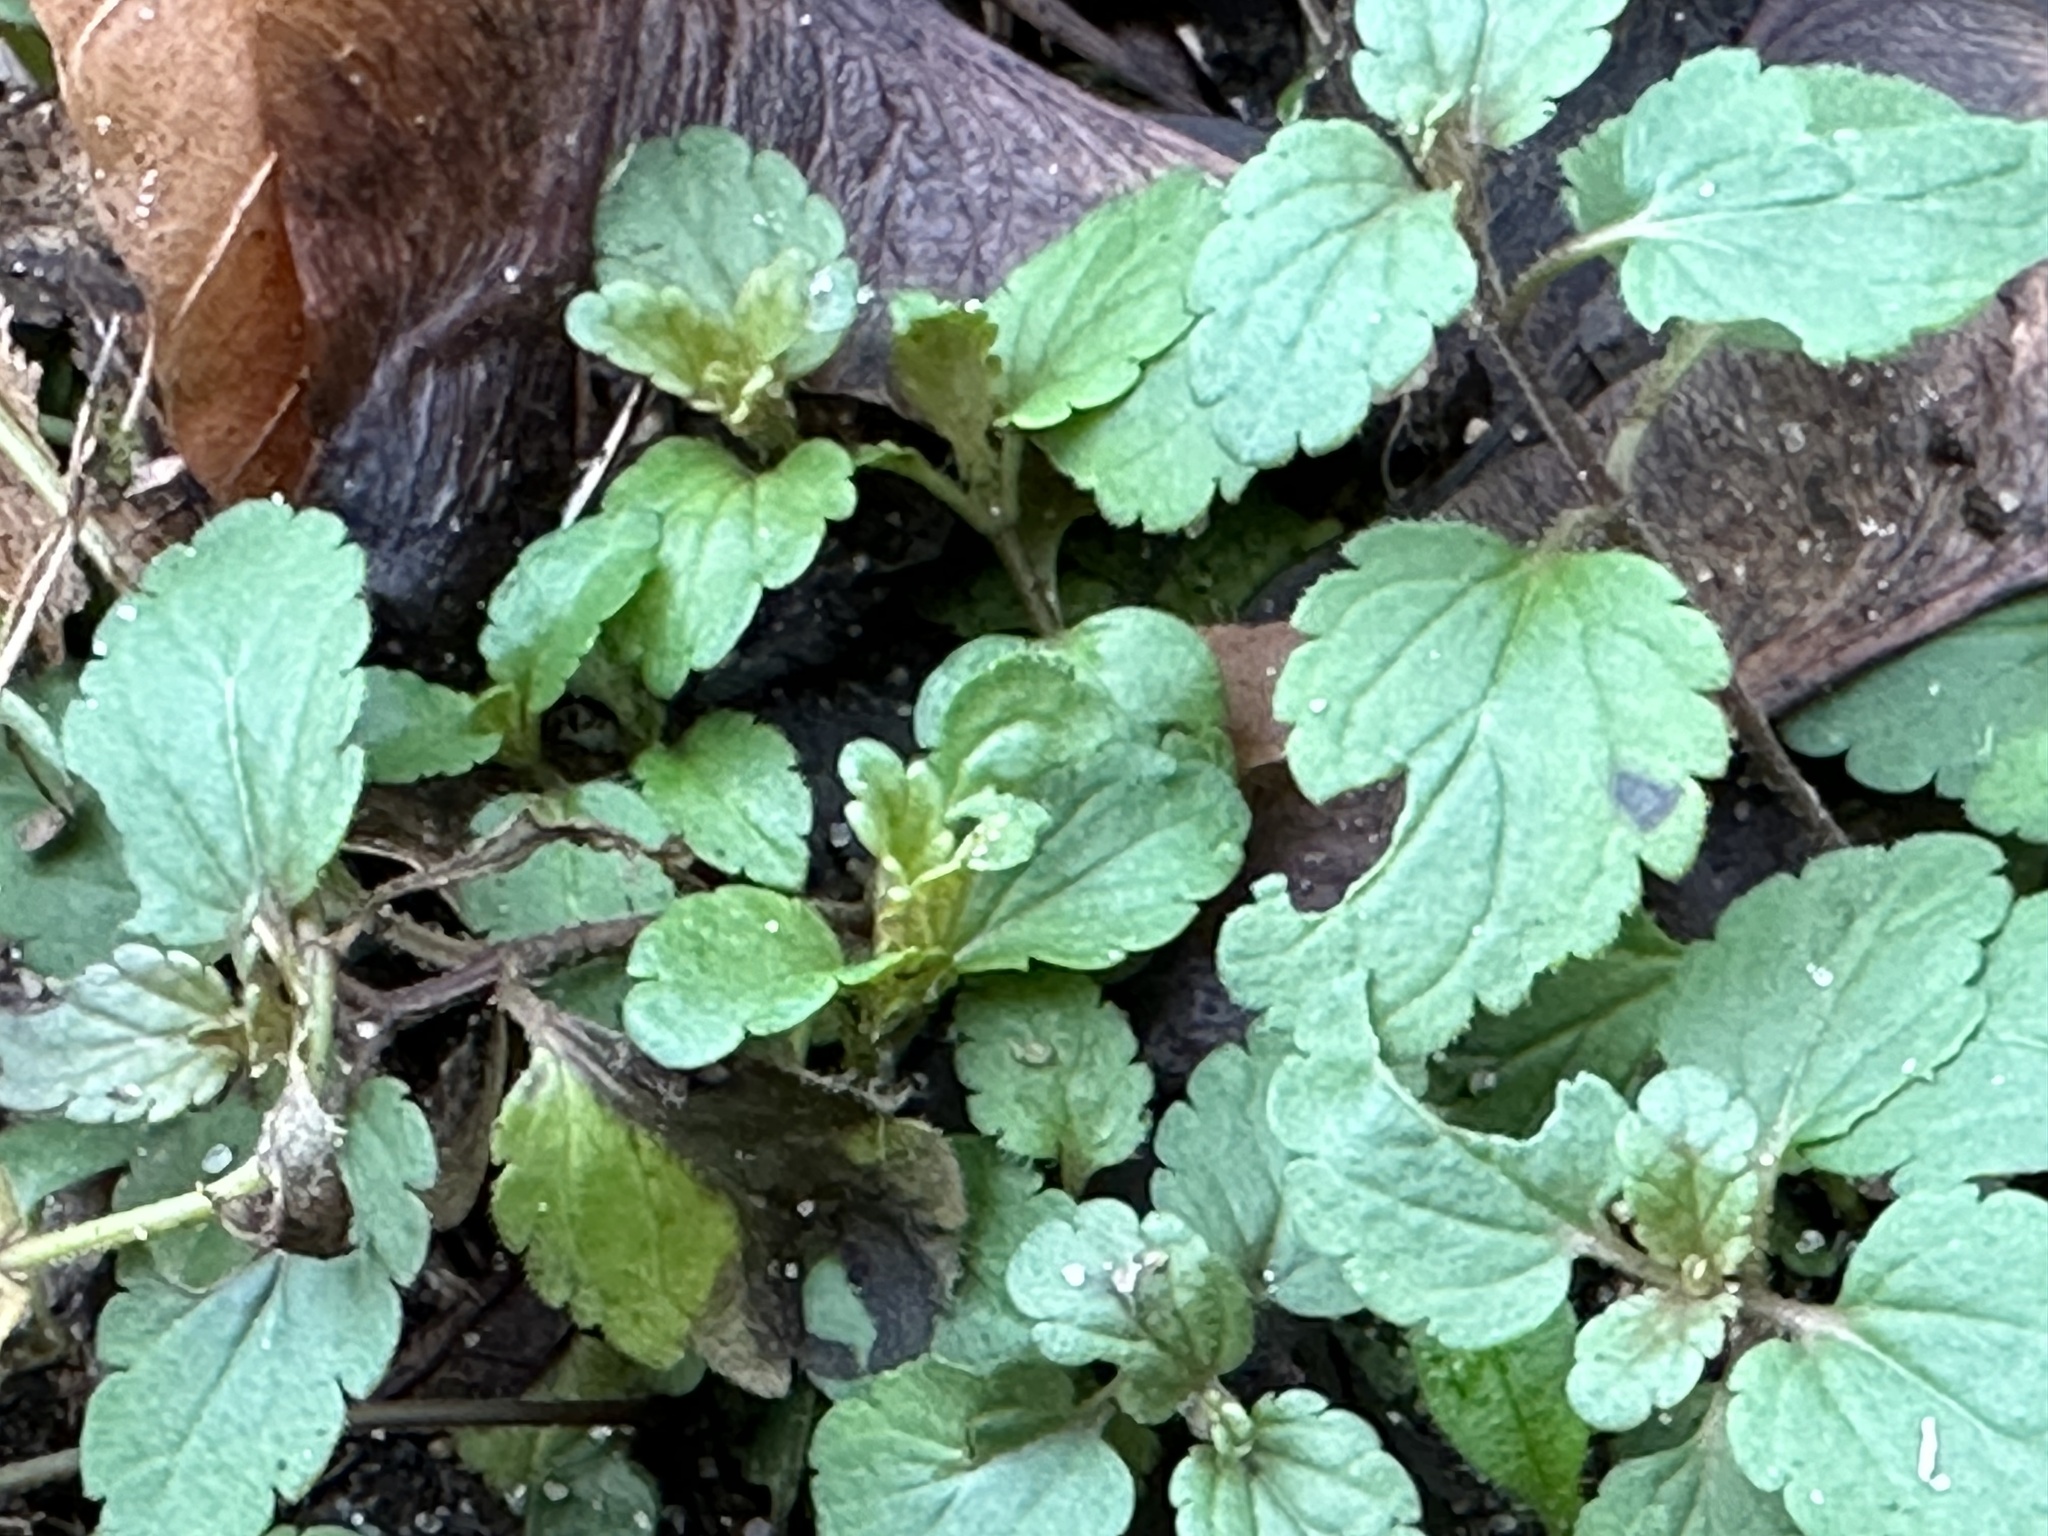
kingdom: Plantae
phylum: Tracheophyta
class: Magnoliopsida
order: Lamiales
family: Plantaginaceae
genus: Veronica
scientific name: Veronica chamaedrys
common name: Germander speedwell
